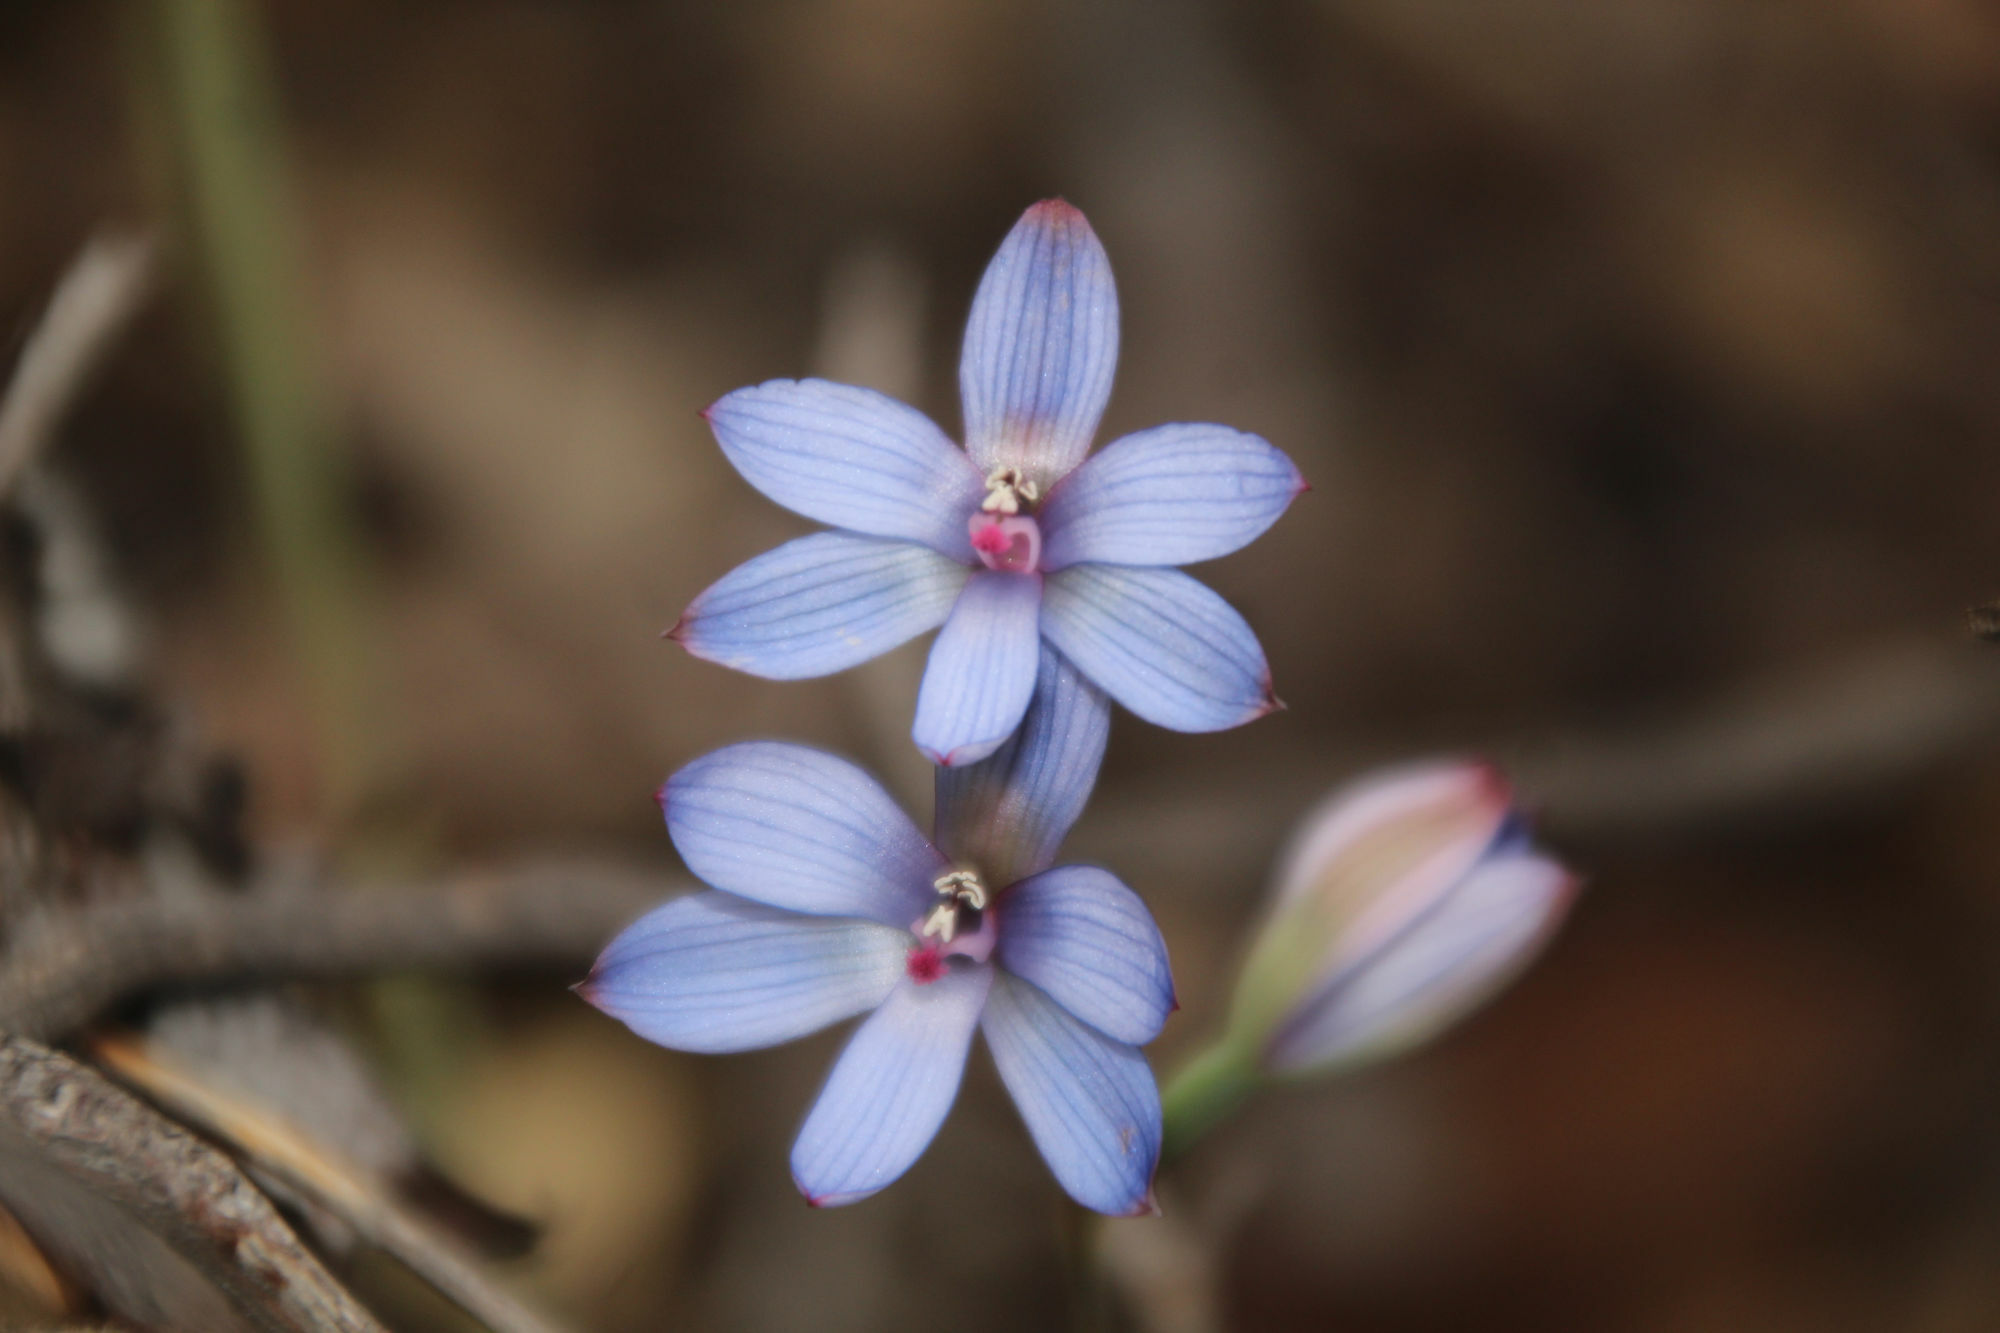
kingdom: Plantae
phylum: Tracheophyta
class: Liliopsida
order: Asparagales
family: Orchidaceae
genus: Thelymitra
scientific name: Thelymitra latiloba
